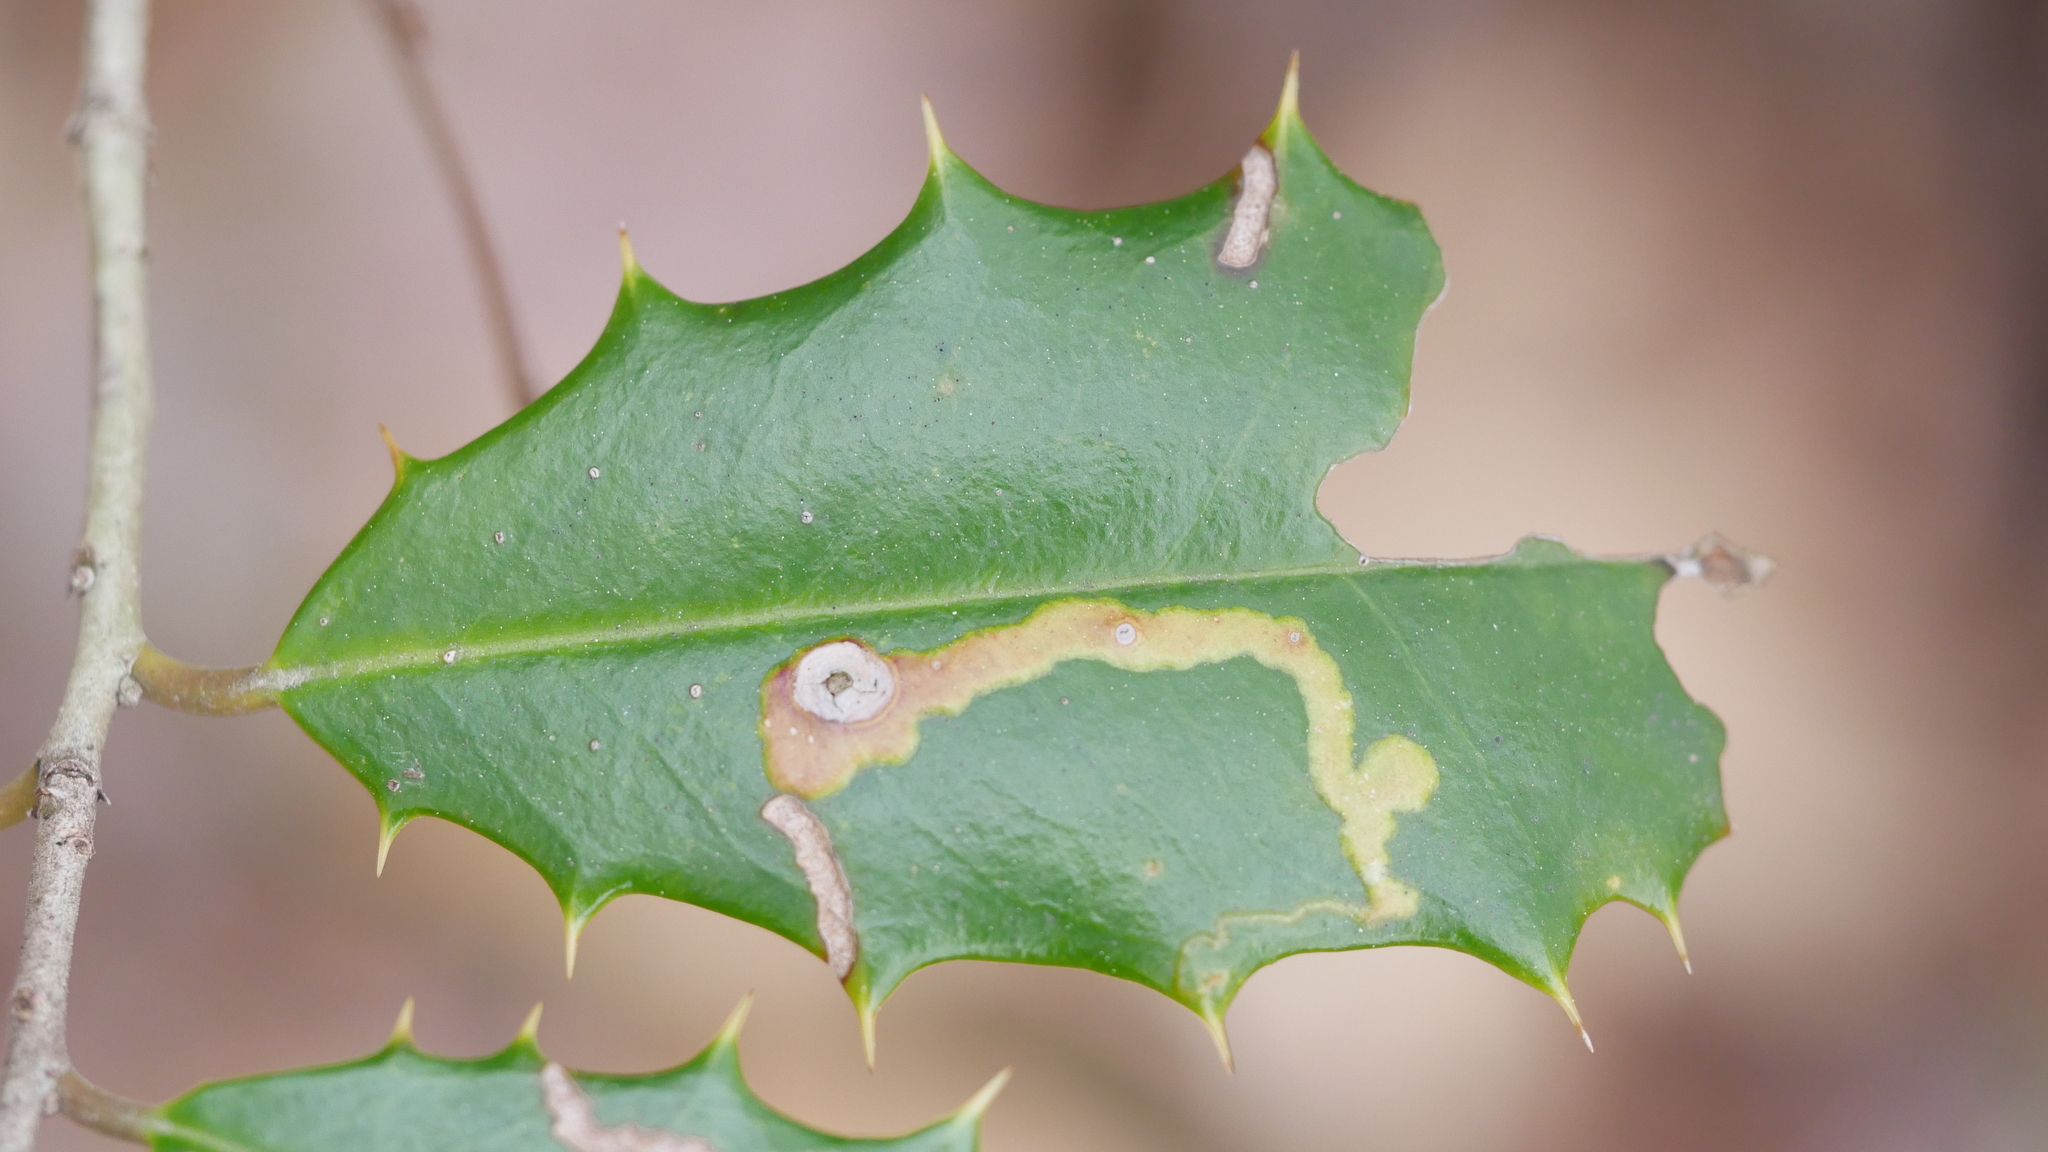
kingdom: Animalia
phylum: Arthropoda
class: Insecta
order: Diptera
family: Agromyzidae
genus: Phytomyza
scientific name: Phytomyza ilicicola
